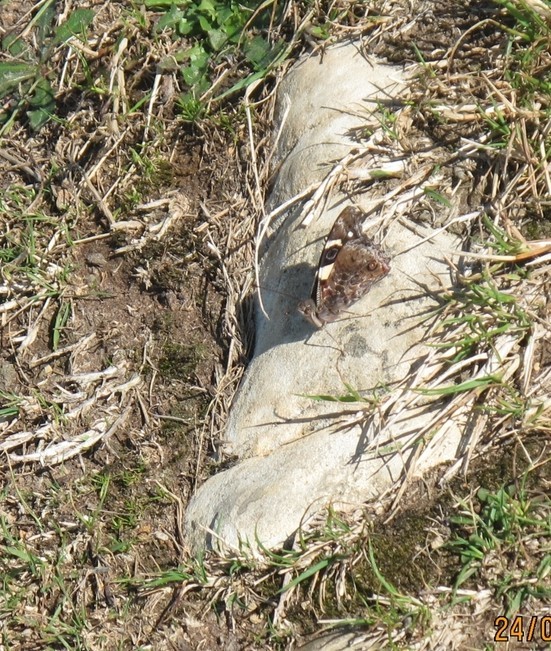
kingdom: Animalia
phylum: Arthropoda
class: Insecta
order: Lepidoptera
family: Nymphalidae
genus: Vanessa
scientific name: Vanessa itea
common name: Yellow admiral
